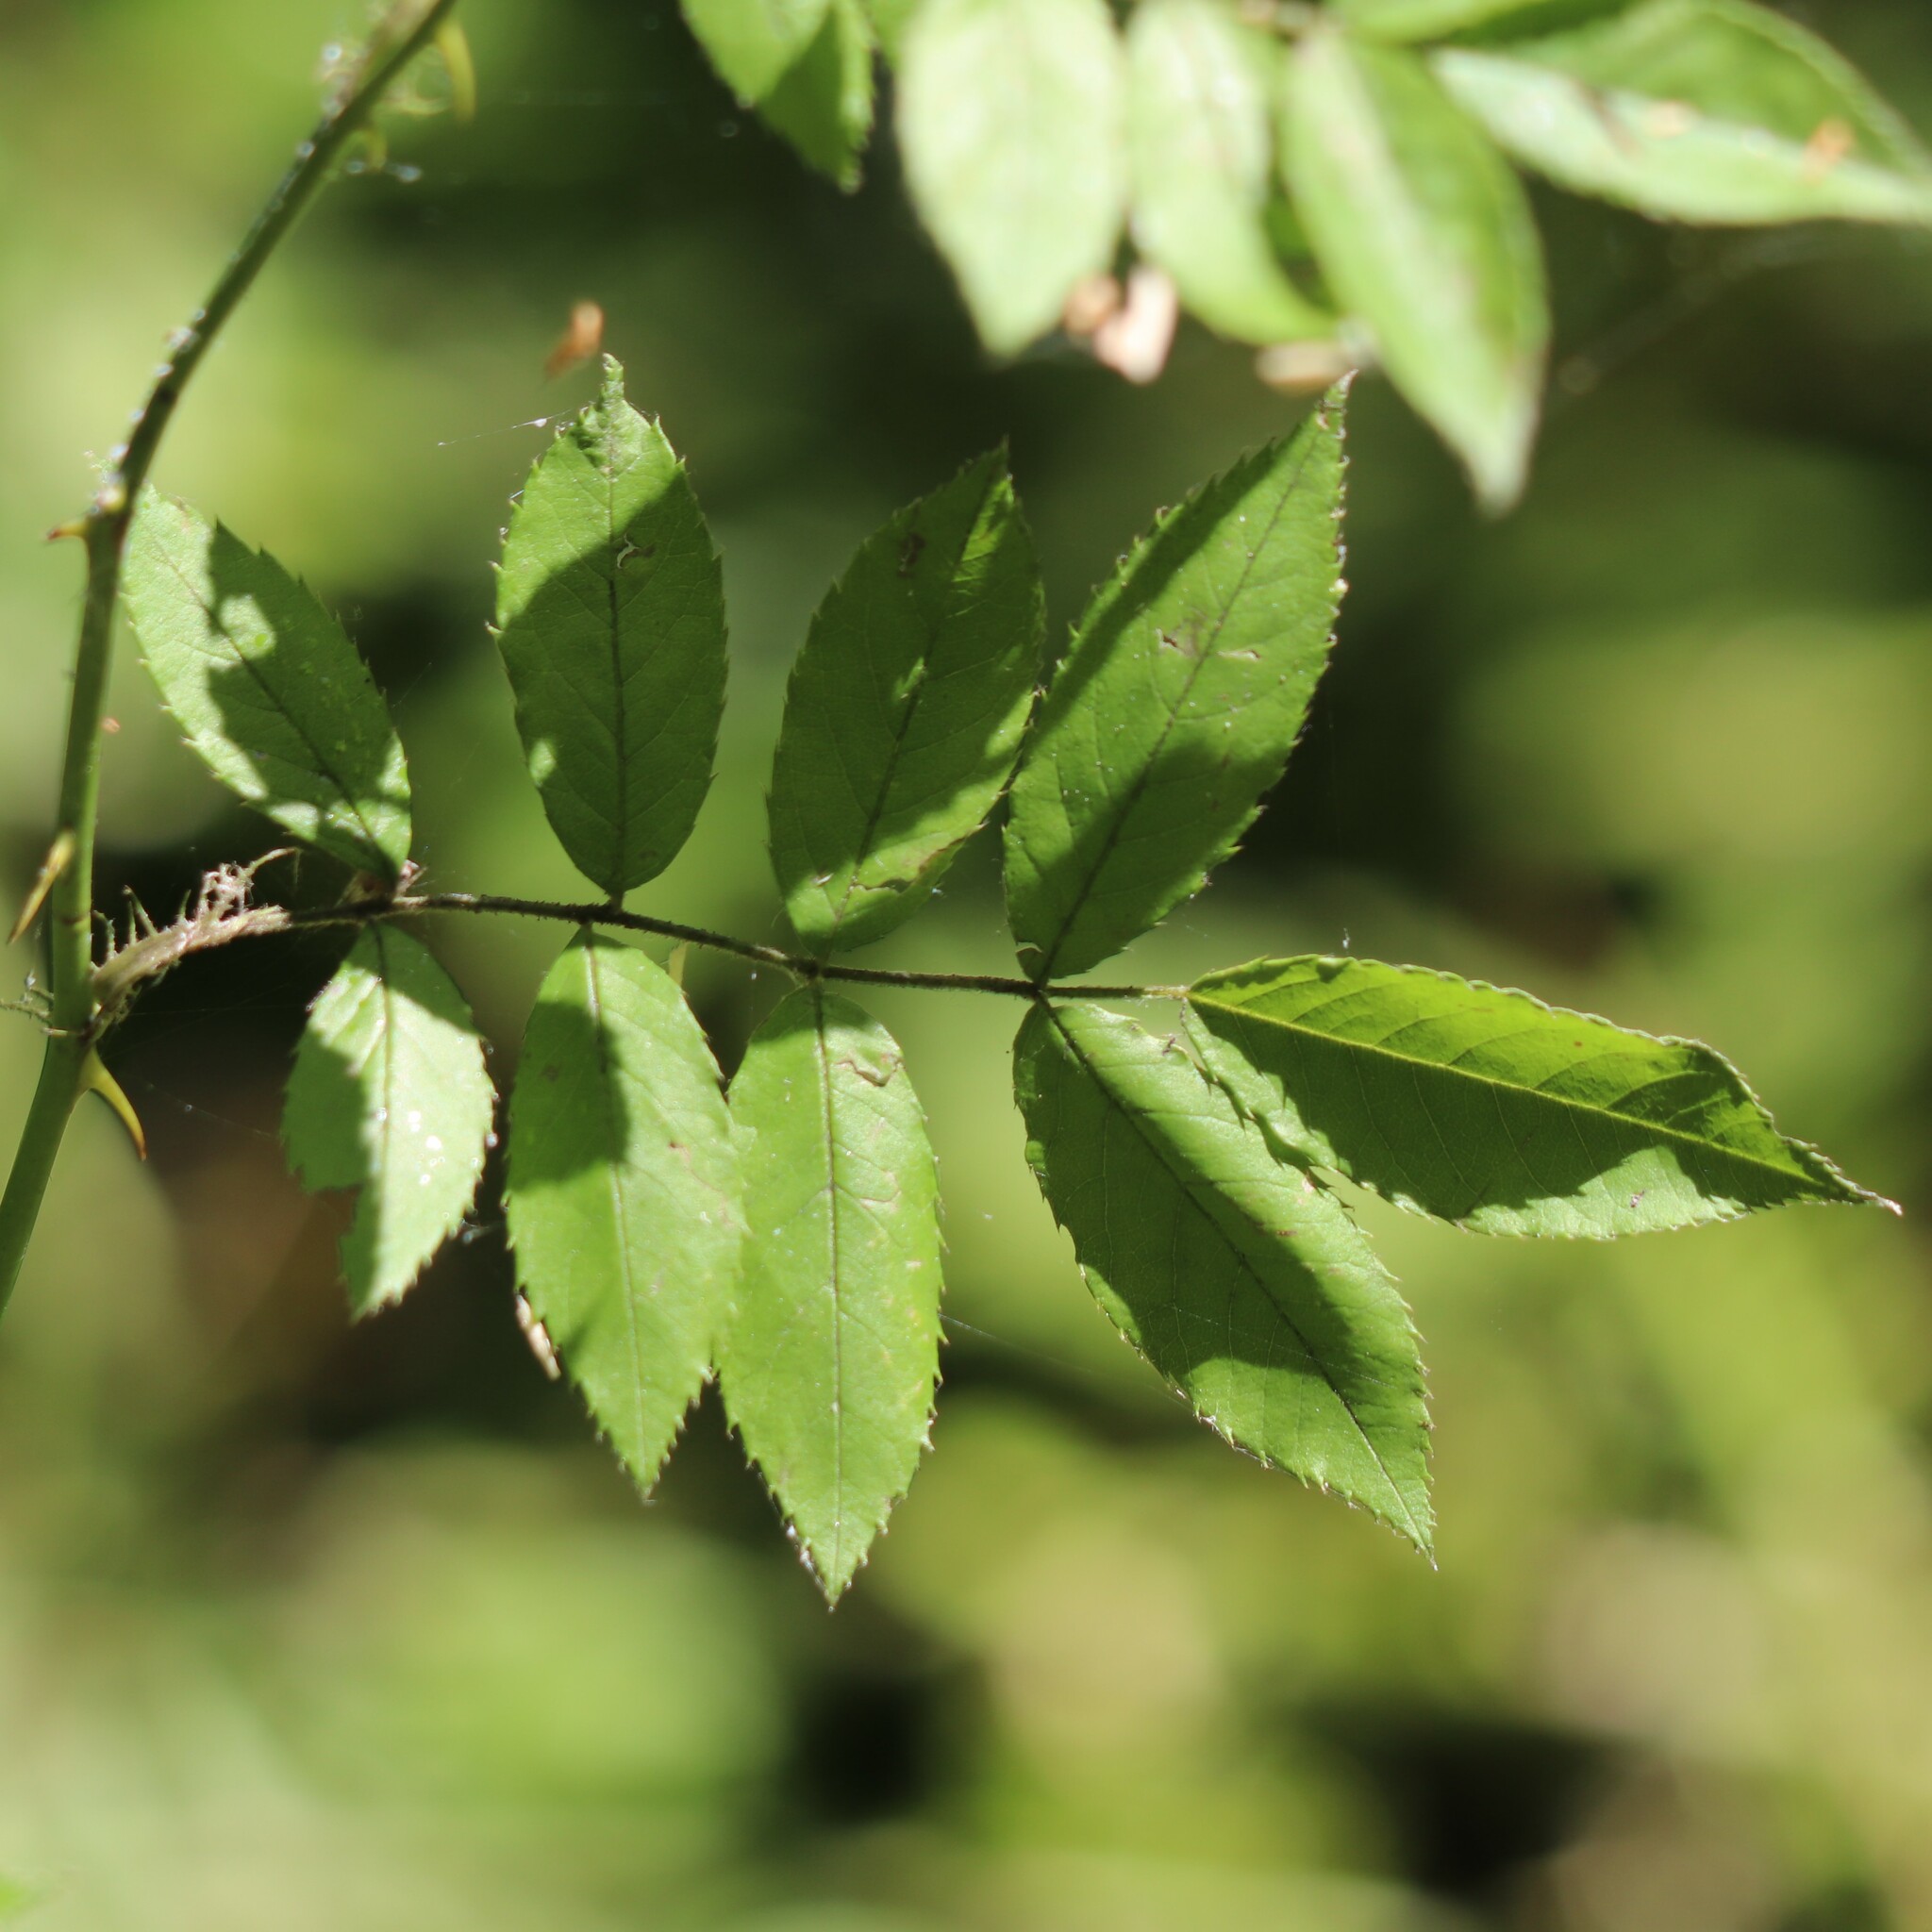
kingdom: Plantae
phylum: Tracheophyta
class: Magnoliopsida
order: Rosales
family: Rosaceae
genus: Rosa
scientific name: Rosa multiflora
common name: Multiflora rose
